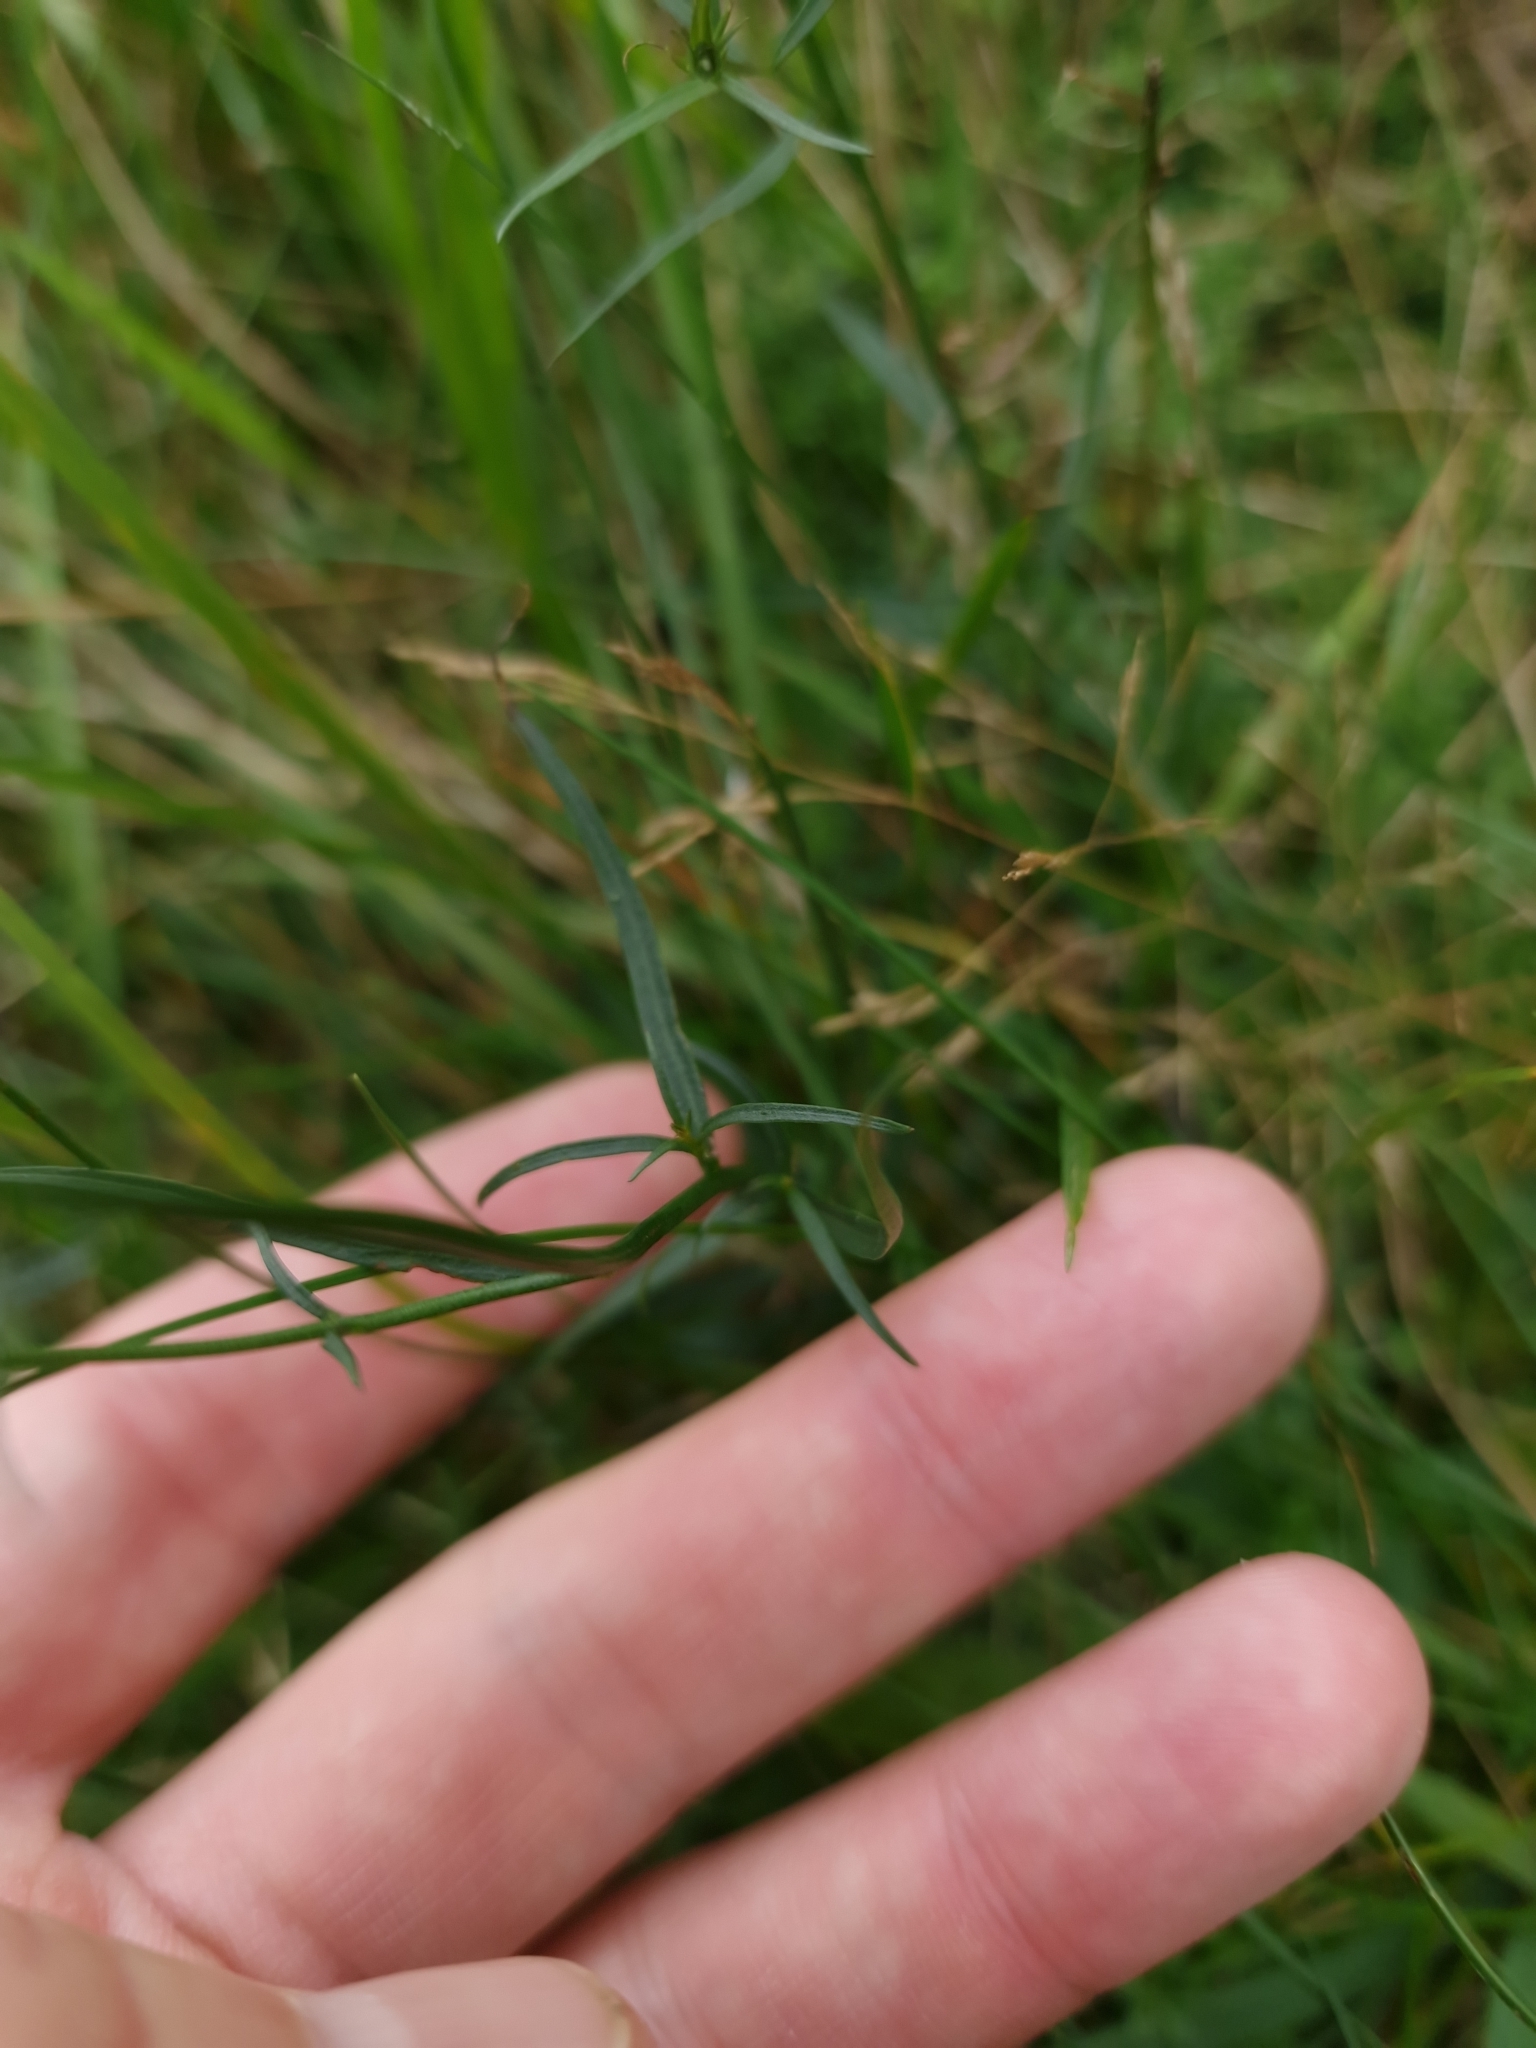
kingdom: Plantae
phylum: Tracheophyta
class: Magnoliopsida
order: Asterales
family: Campanulaceae
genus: Campanula
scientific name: Campanula rotundifolia
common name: Harebell
